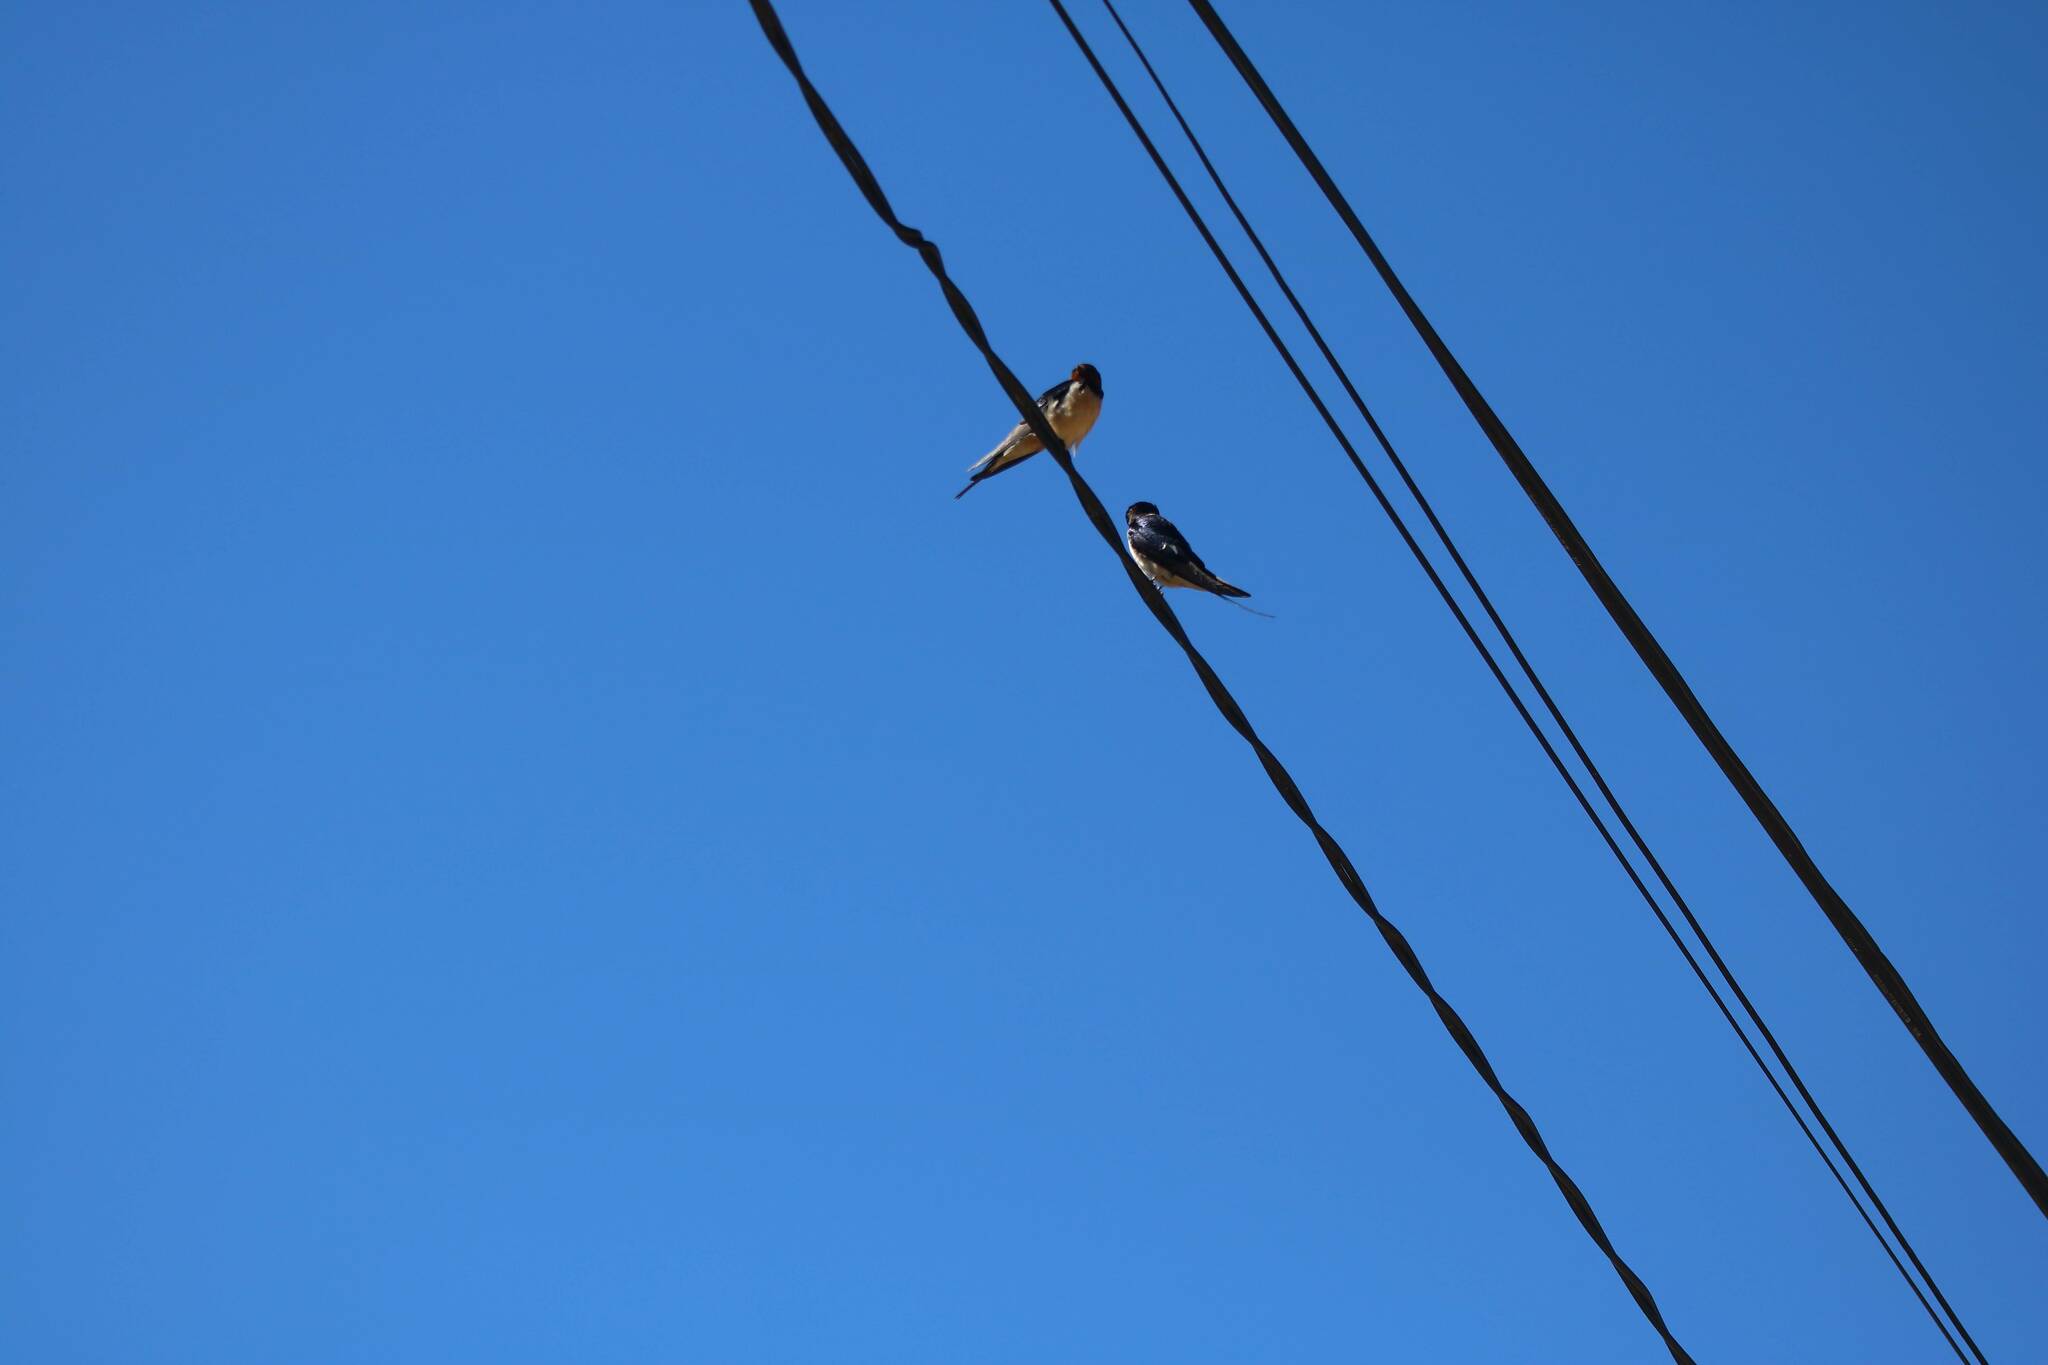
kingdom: Animalia
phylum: Chordata
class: Aves
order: Passeriformes
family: Hirundinidae
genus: Hirundo
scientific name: Hirundo rustica
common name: Barn swallow
